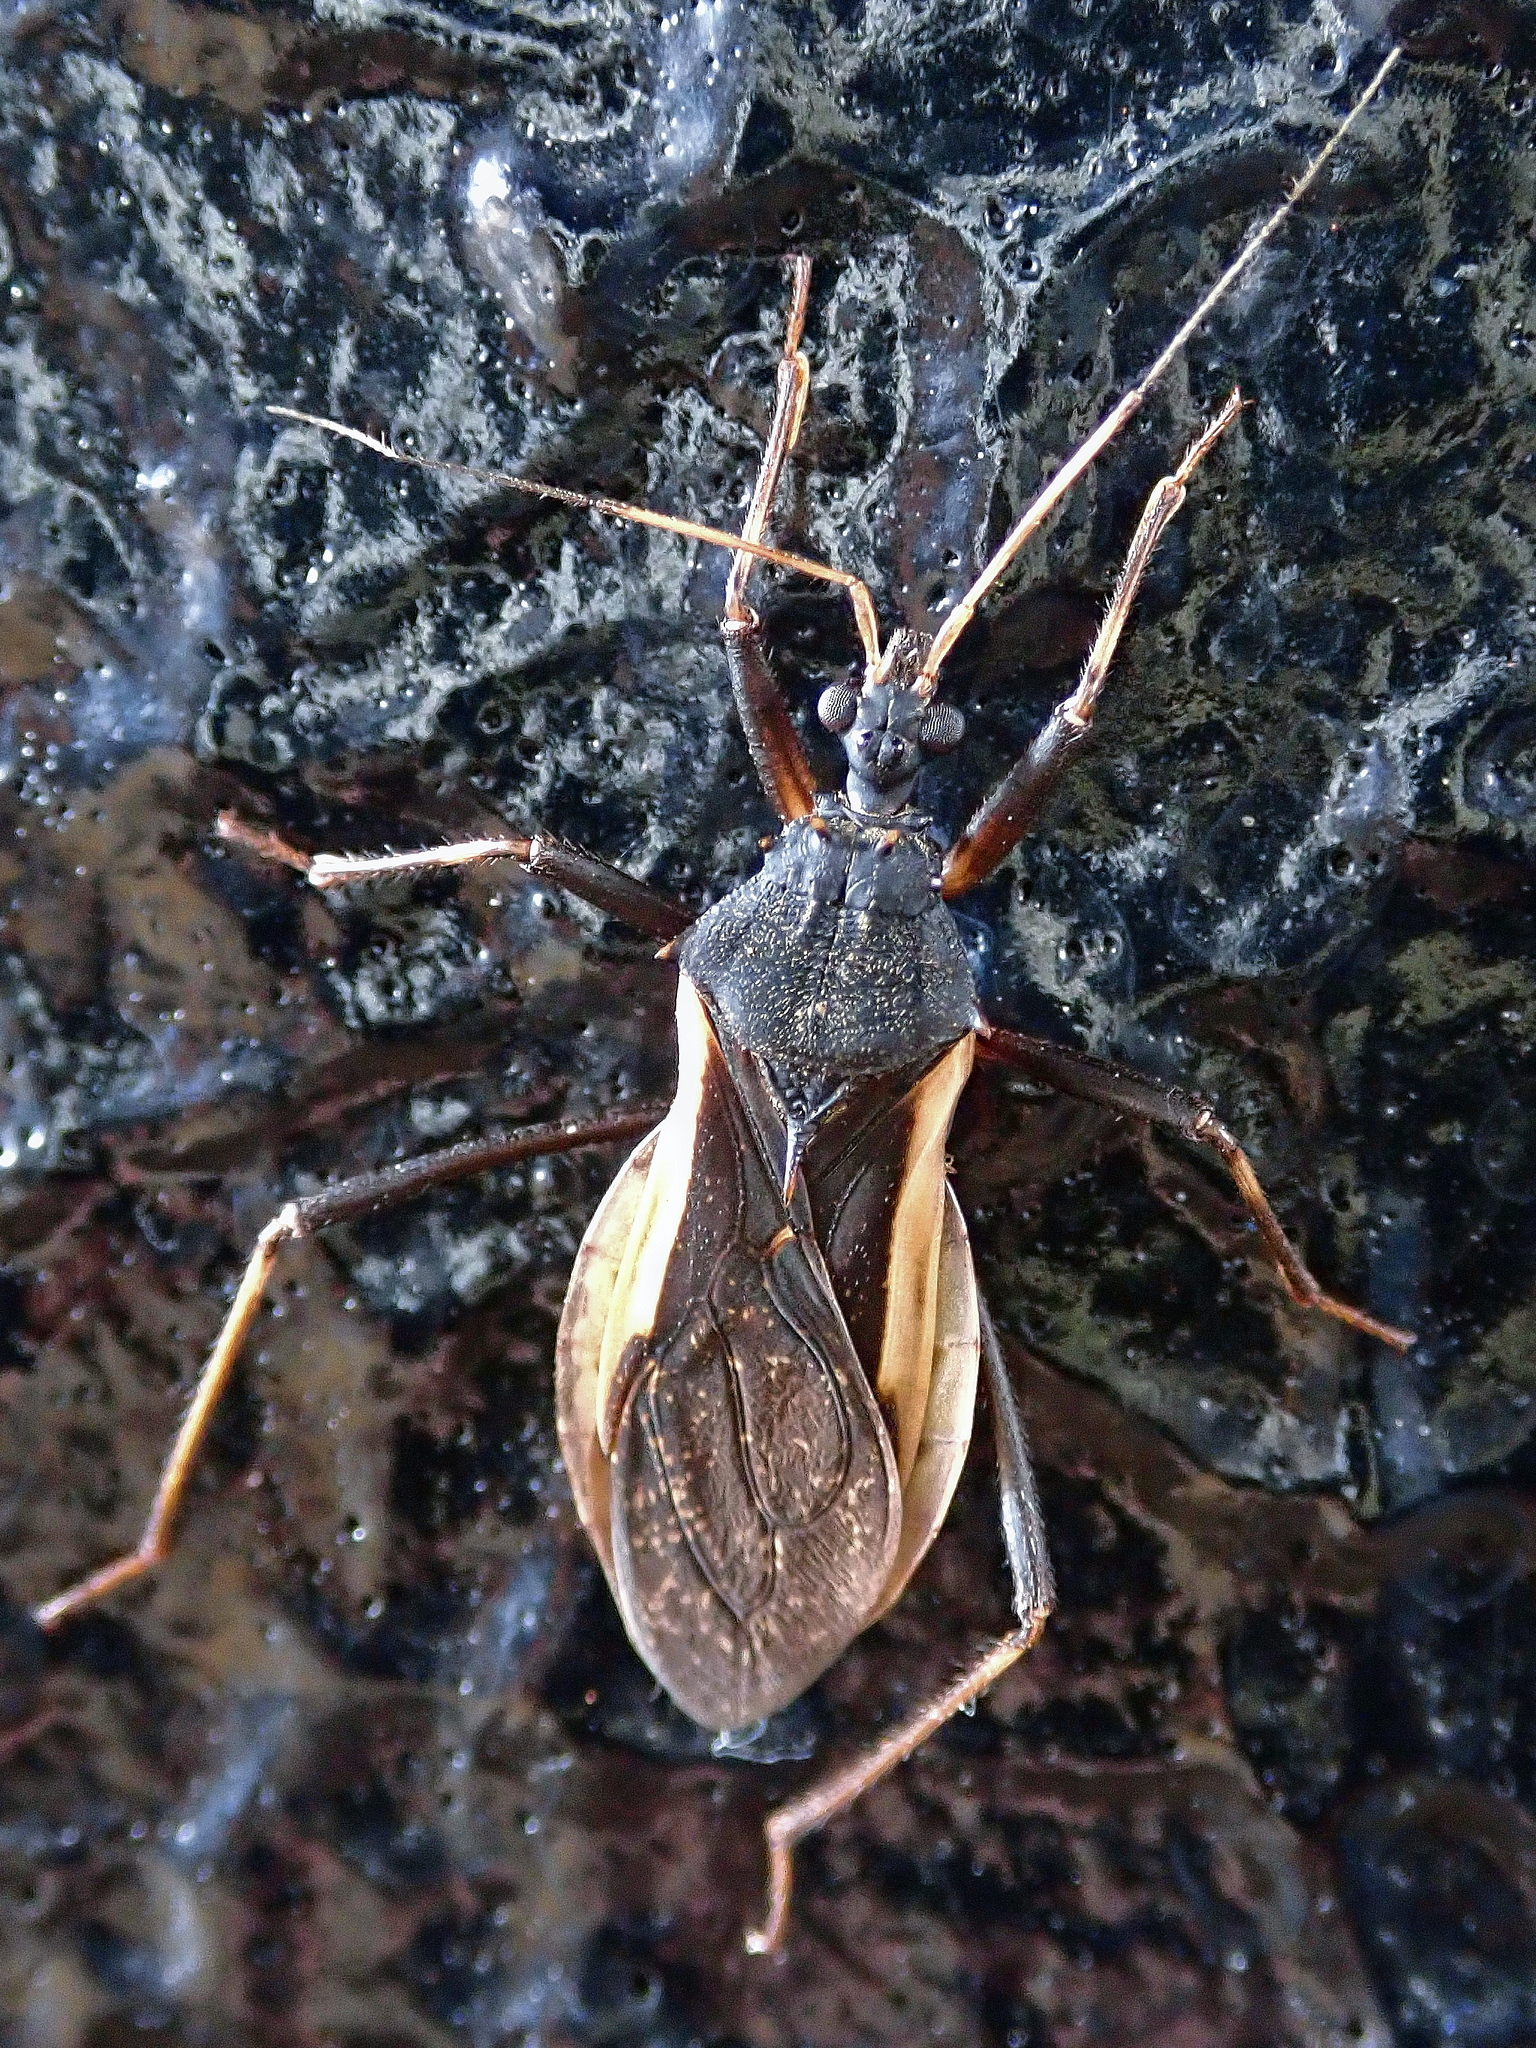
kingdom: Animalia
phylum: Arthropoda
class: Insecta
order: Hemiptera
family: Reduviidae
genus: Zelurus
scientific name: Zelurus albispinus
